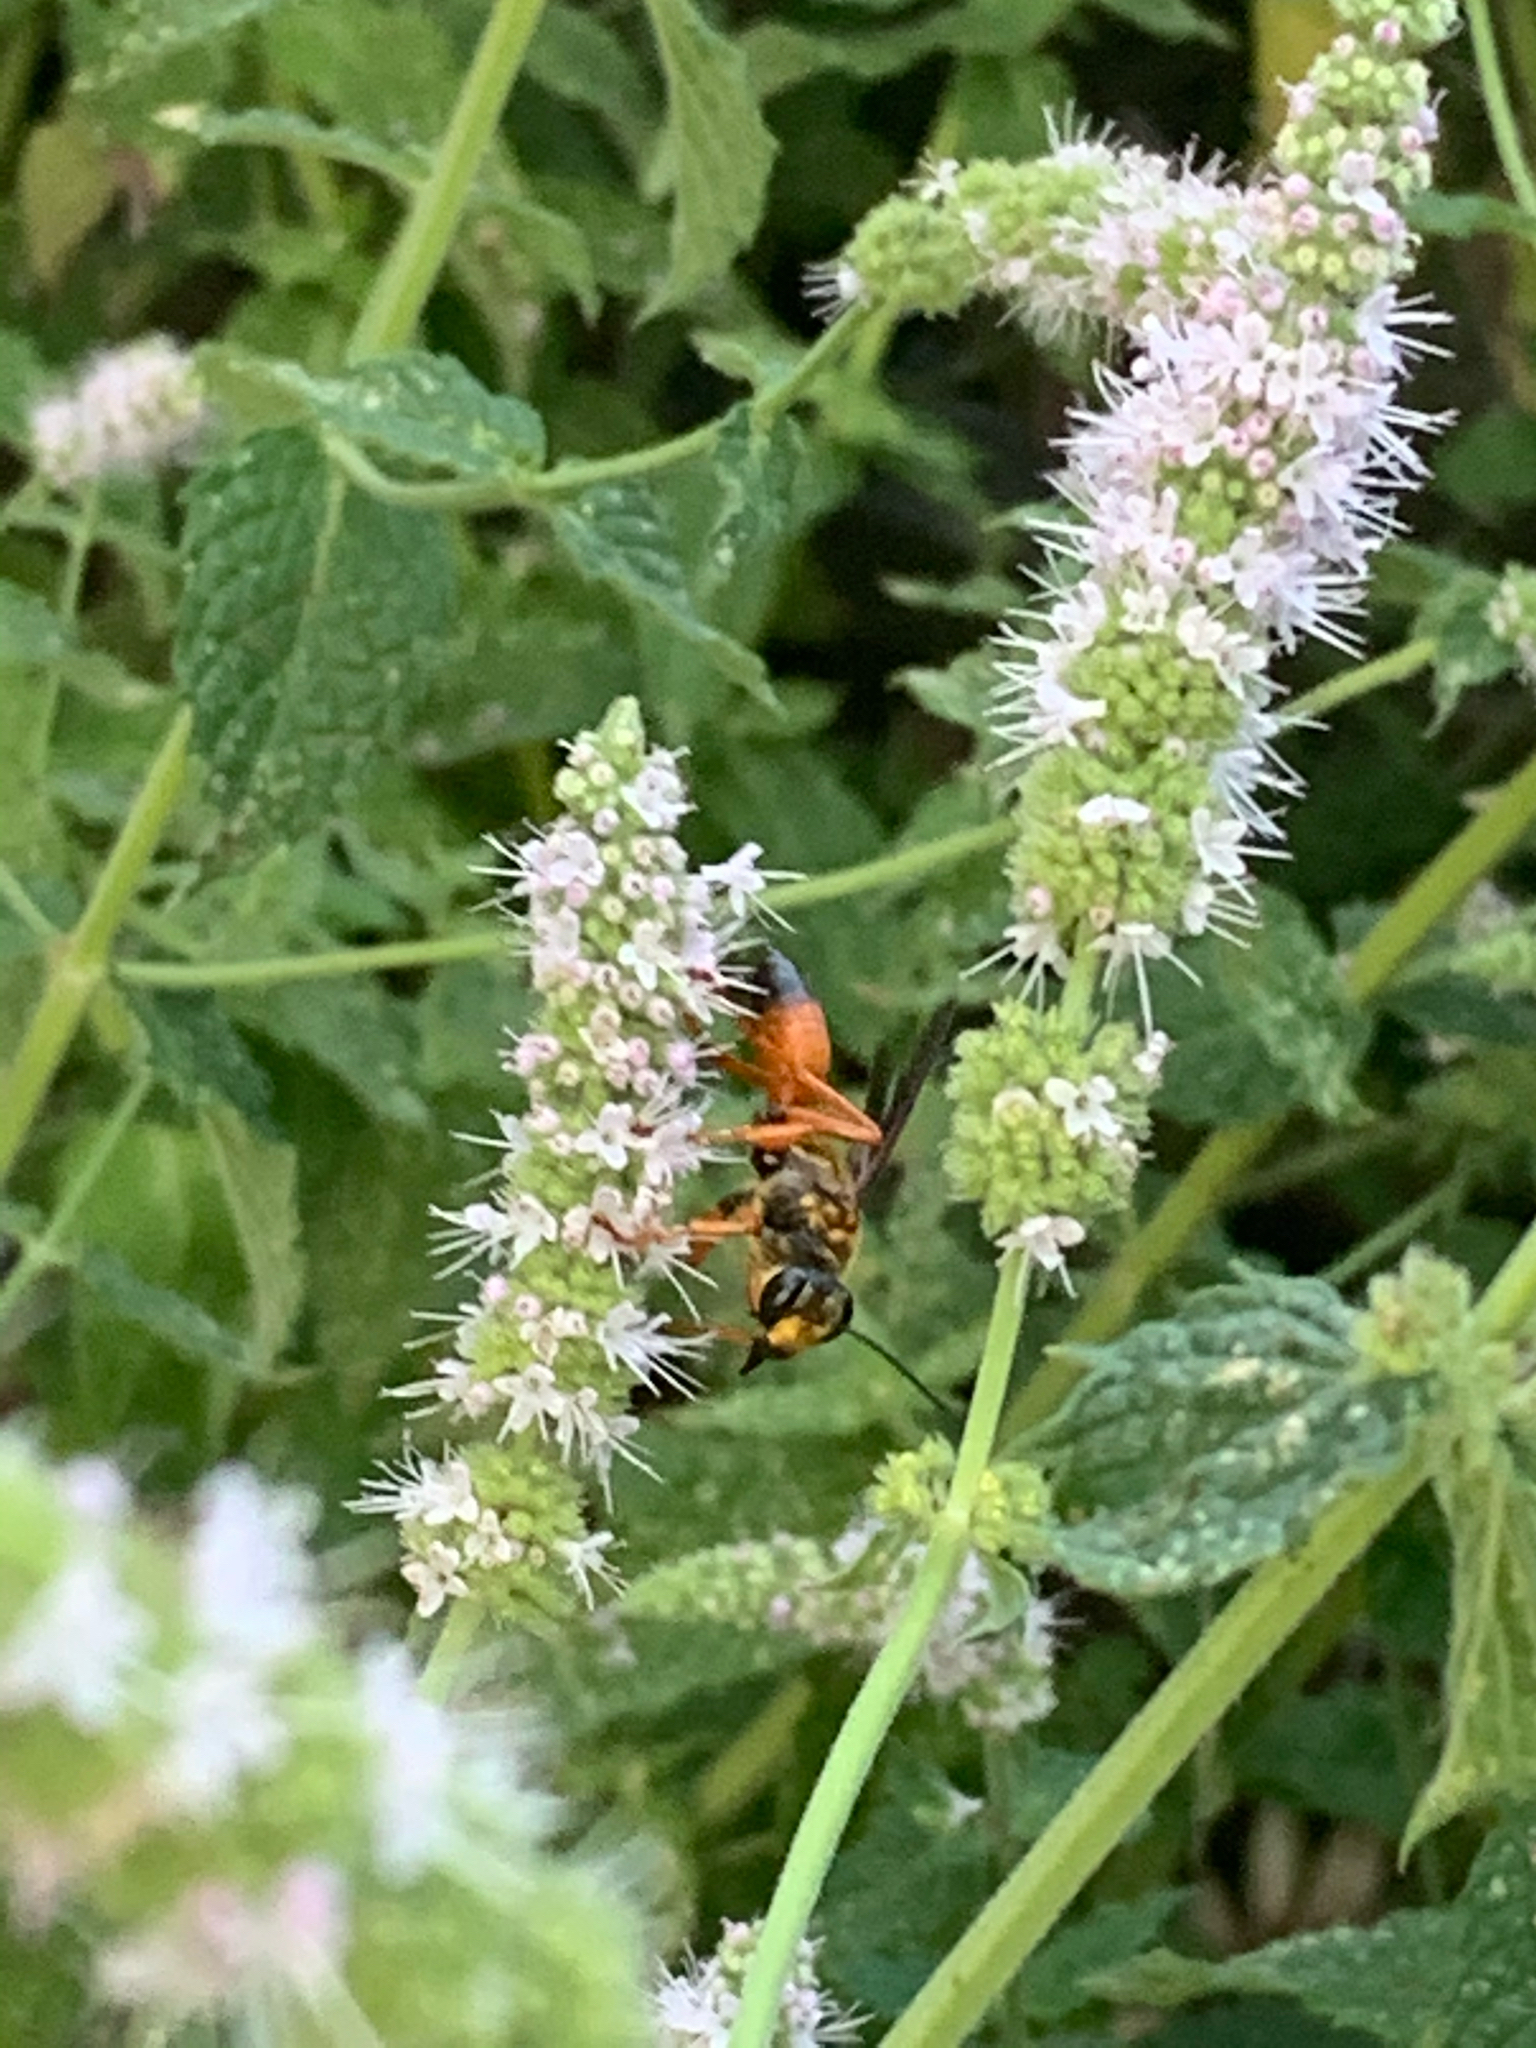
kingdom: Animalia
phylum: Arthropoda
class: Insecta
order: Hymenoptera
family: Sphecidae
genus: Sphex
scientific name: Sphex ichneumoneus
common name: Great golden digger wasp
